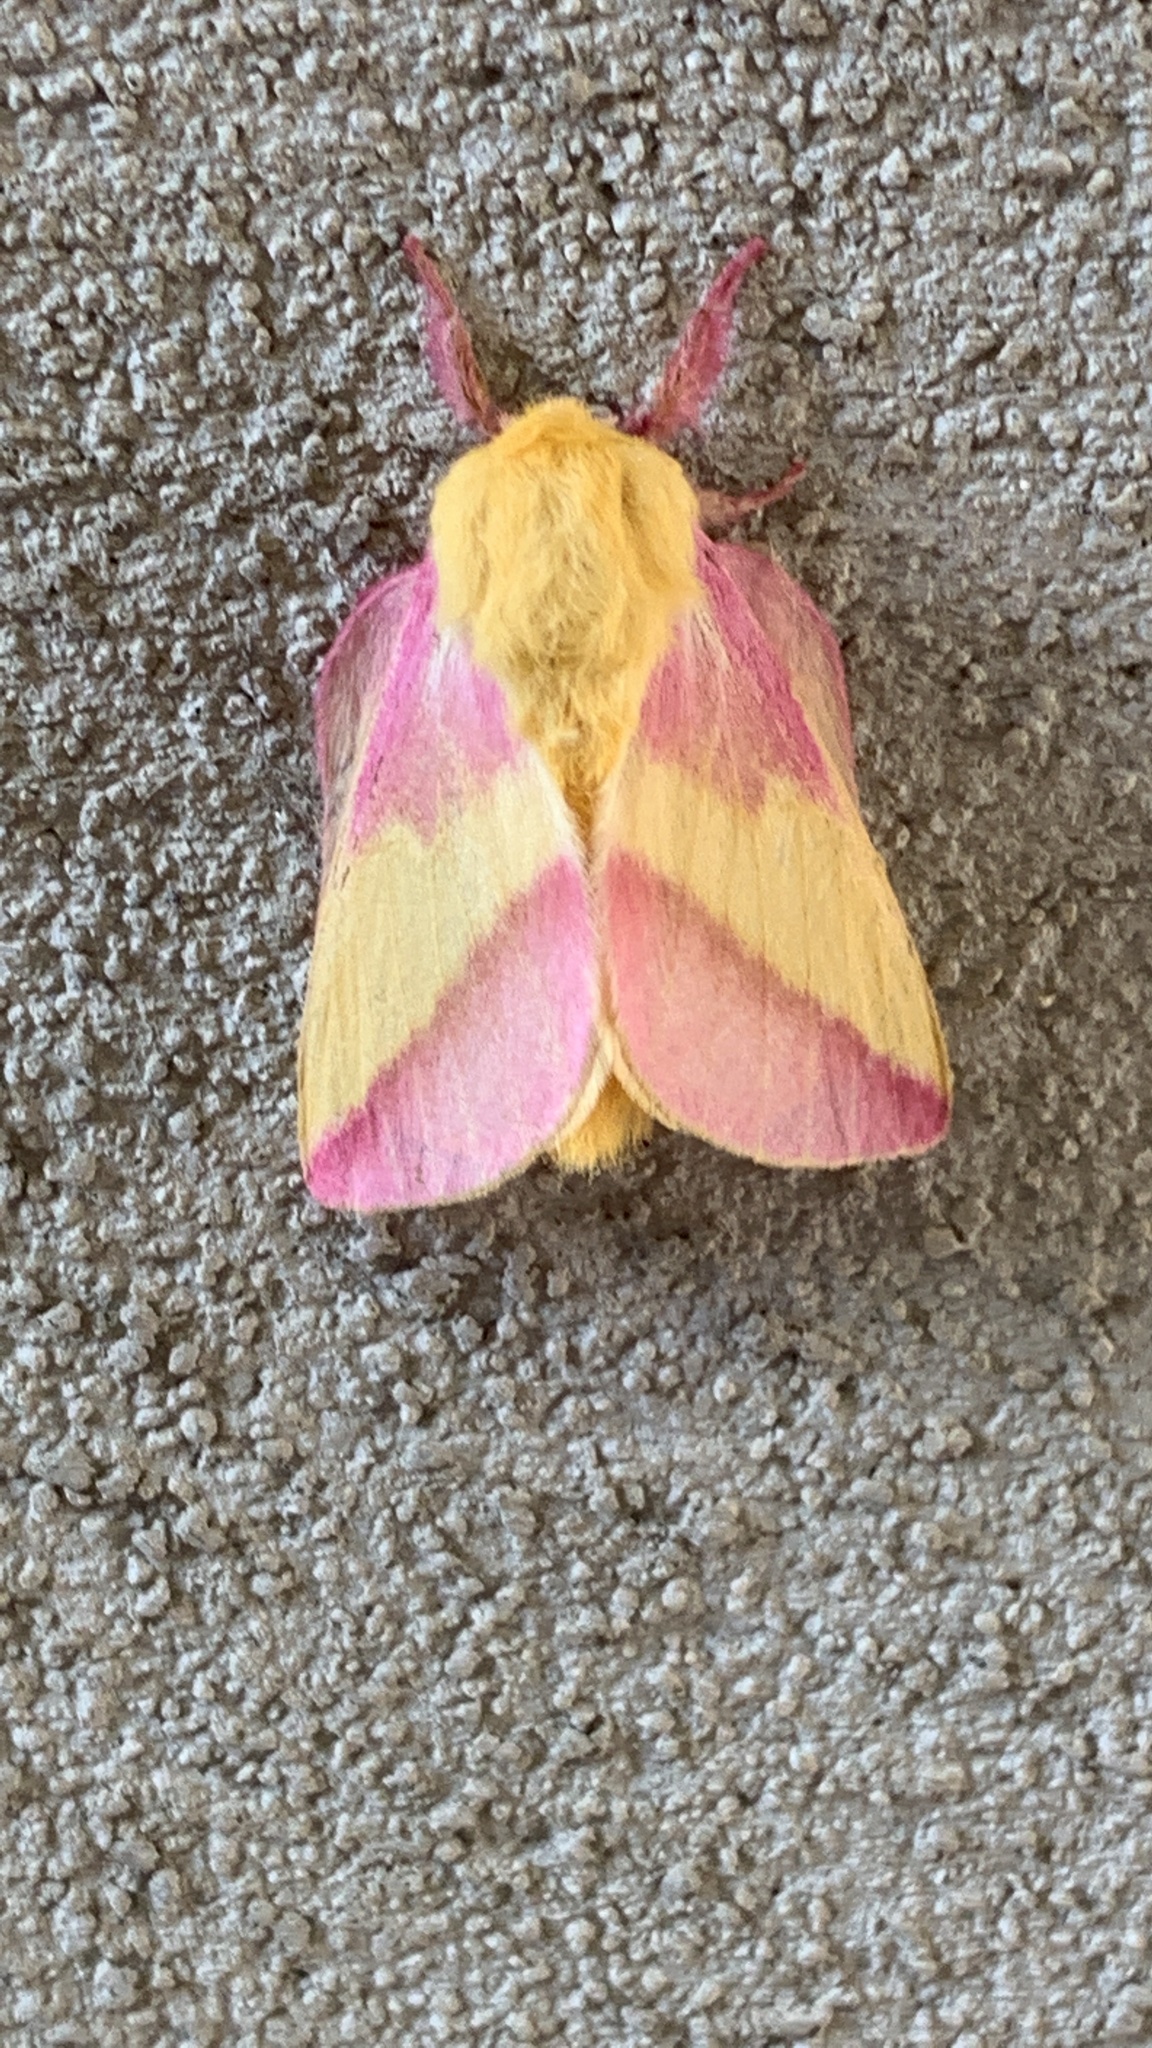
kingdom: Animalia
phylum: Arthropoda
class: Insecta
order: Lepidoptera
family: Saturniidae
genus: Dryocampa
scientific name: Dryocampa rubicunda
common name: Rosy maple moth
